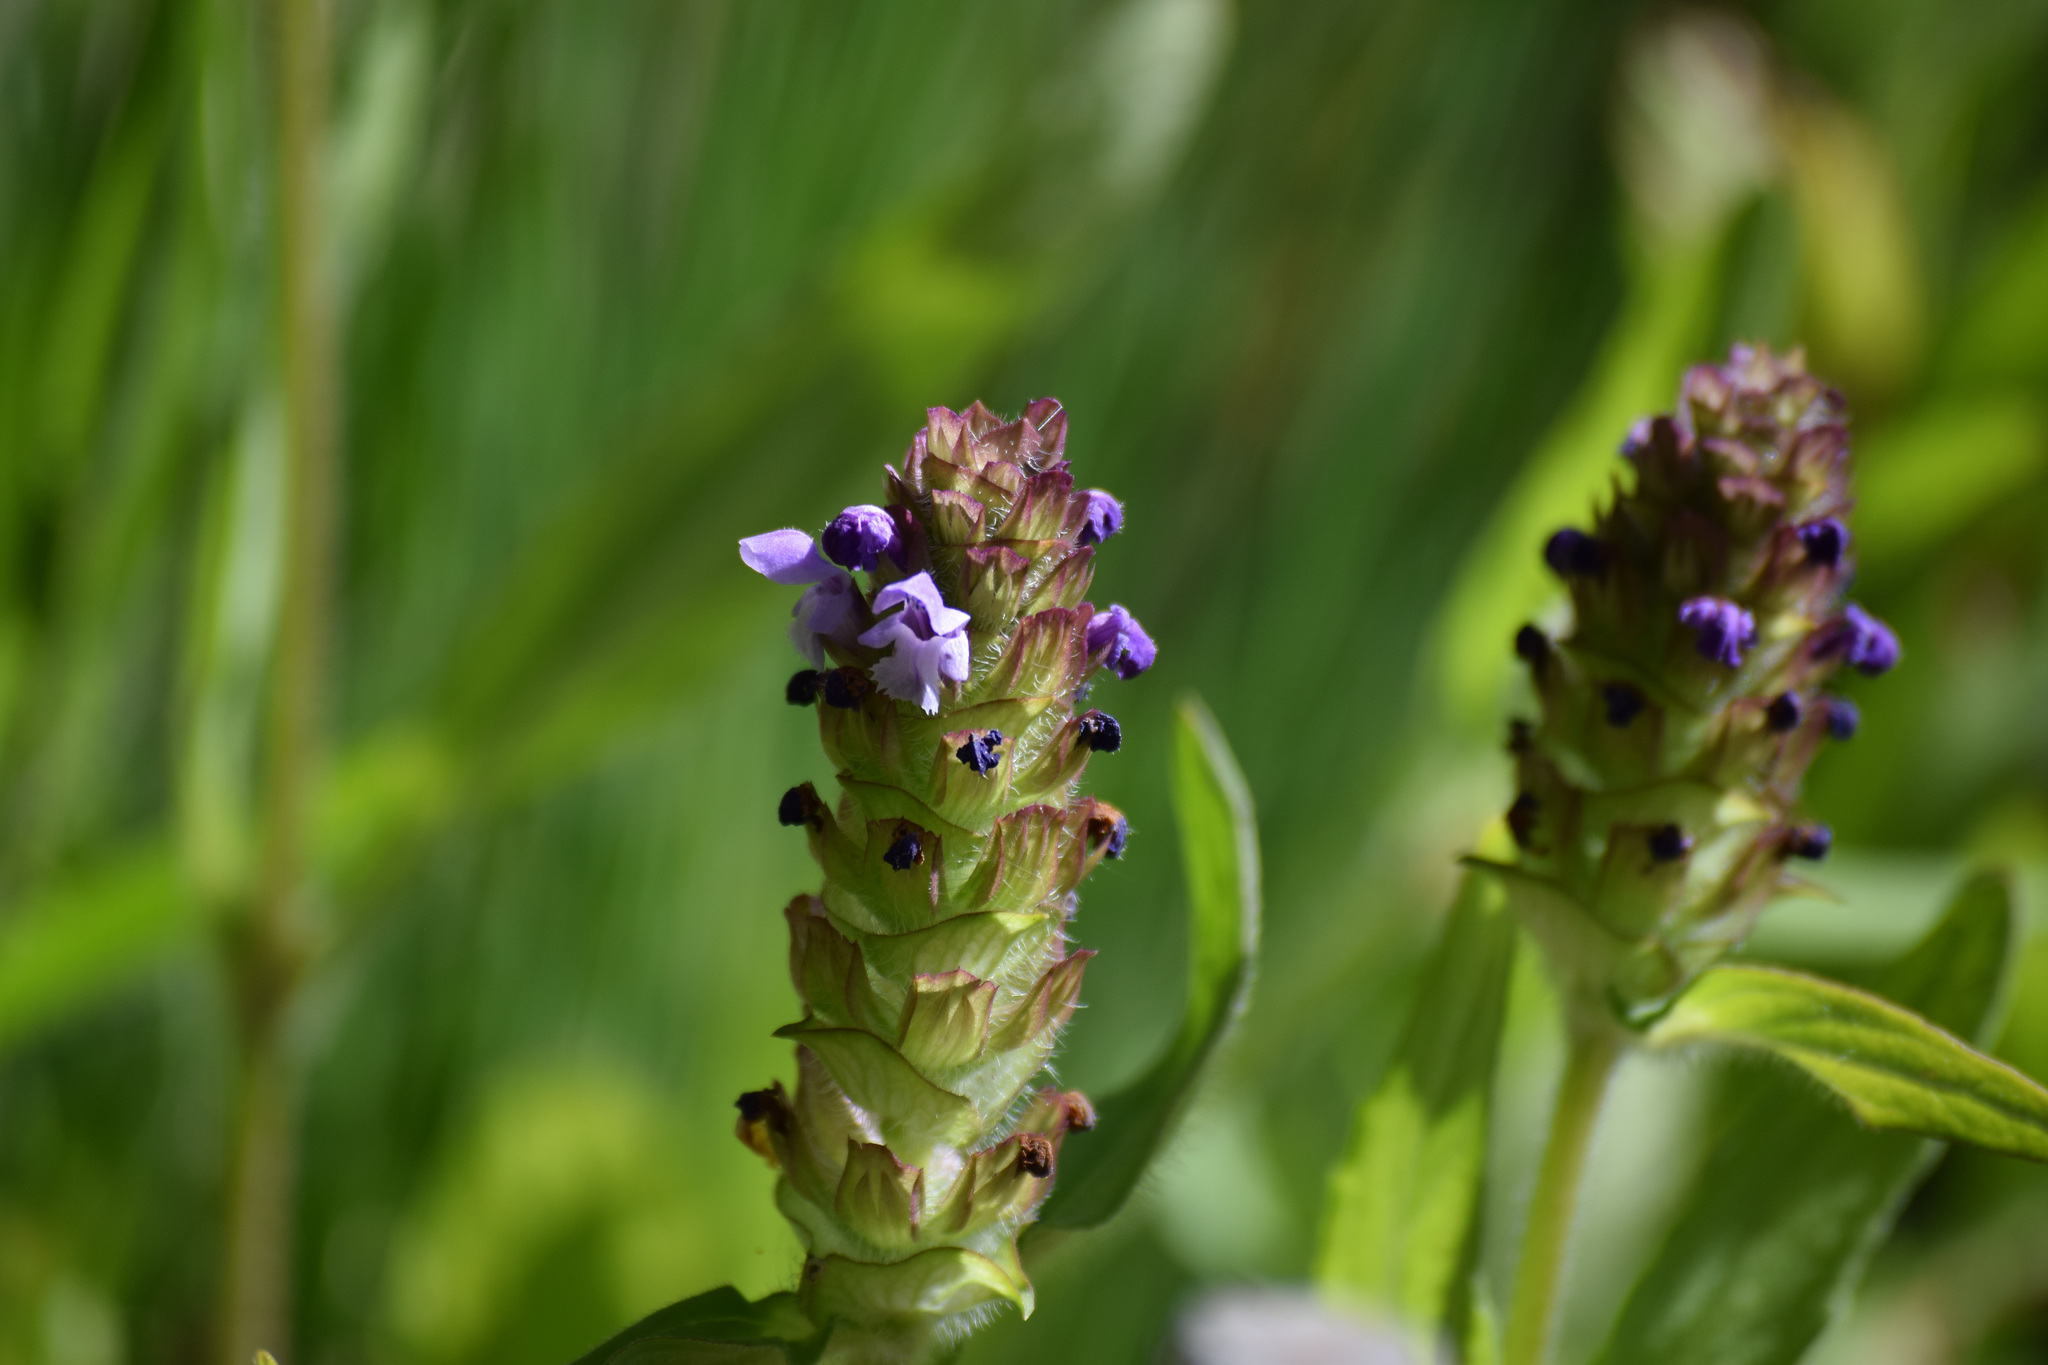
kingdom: Plantae
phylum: Tracheophyta
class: Magnoliopsida
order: Lamiales
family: Lamiaceae
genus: Prunella
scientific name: Prunella vulgaris
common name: Heal-all
